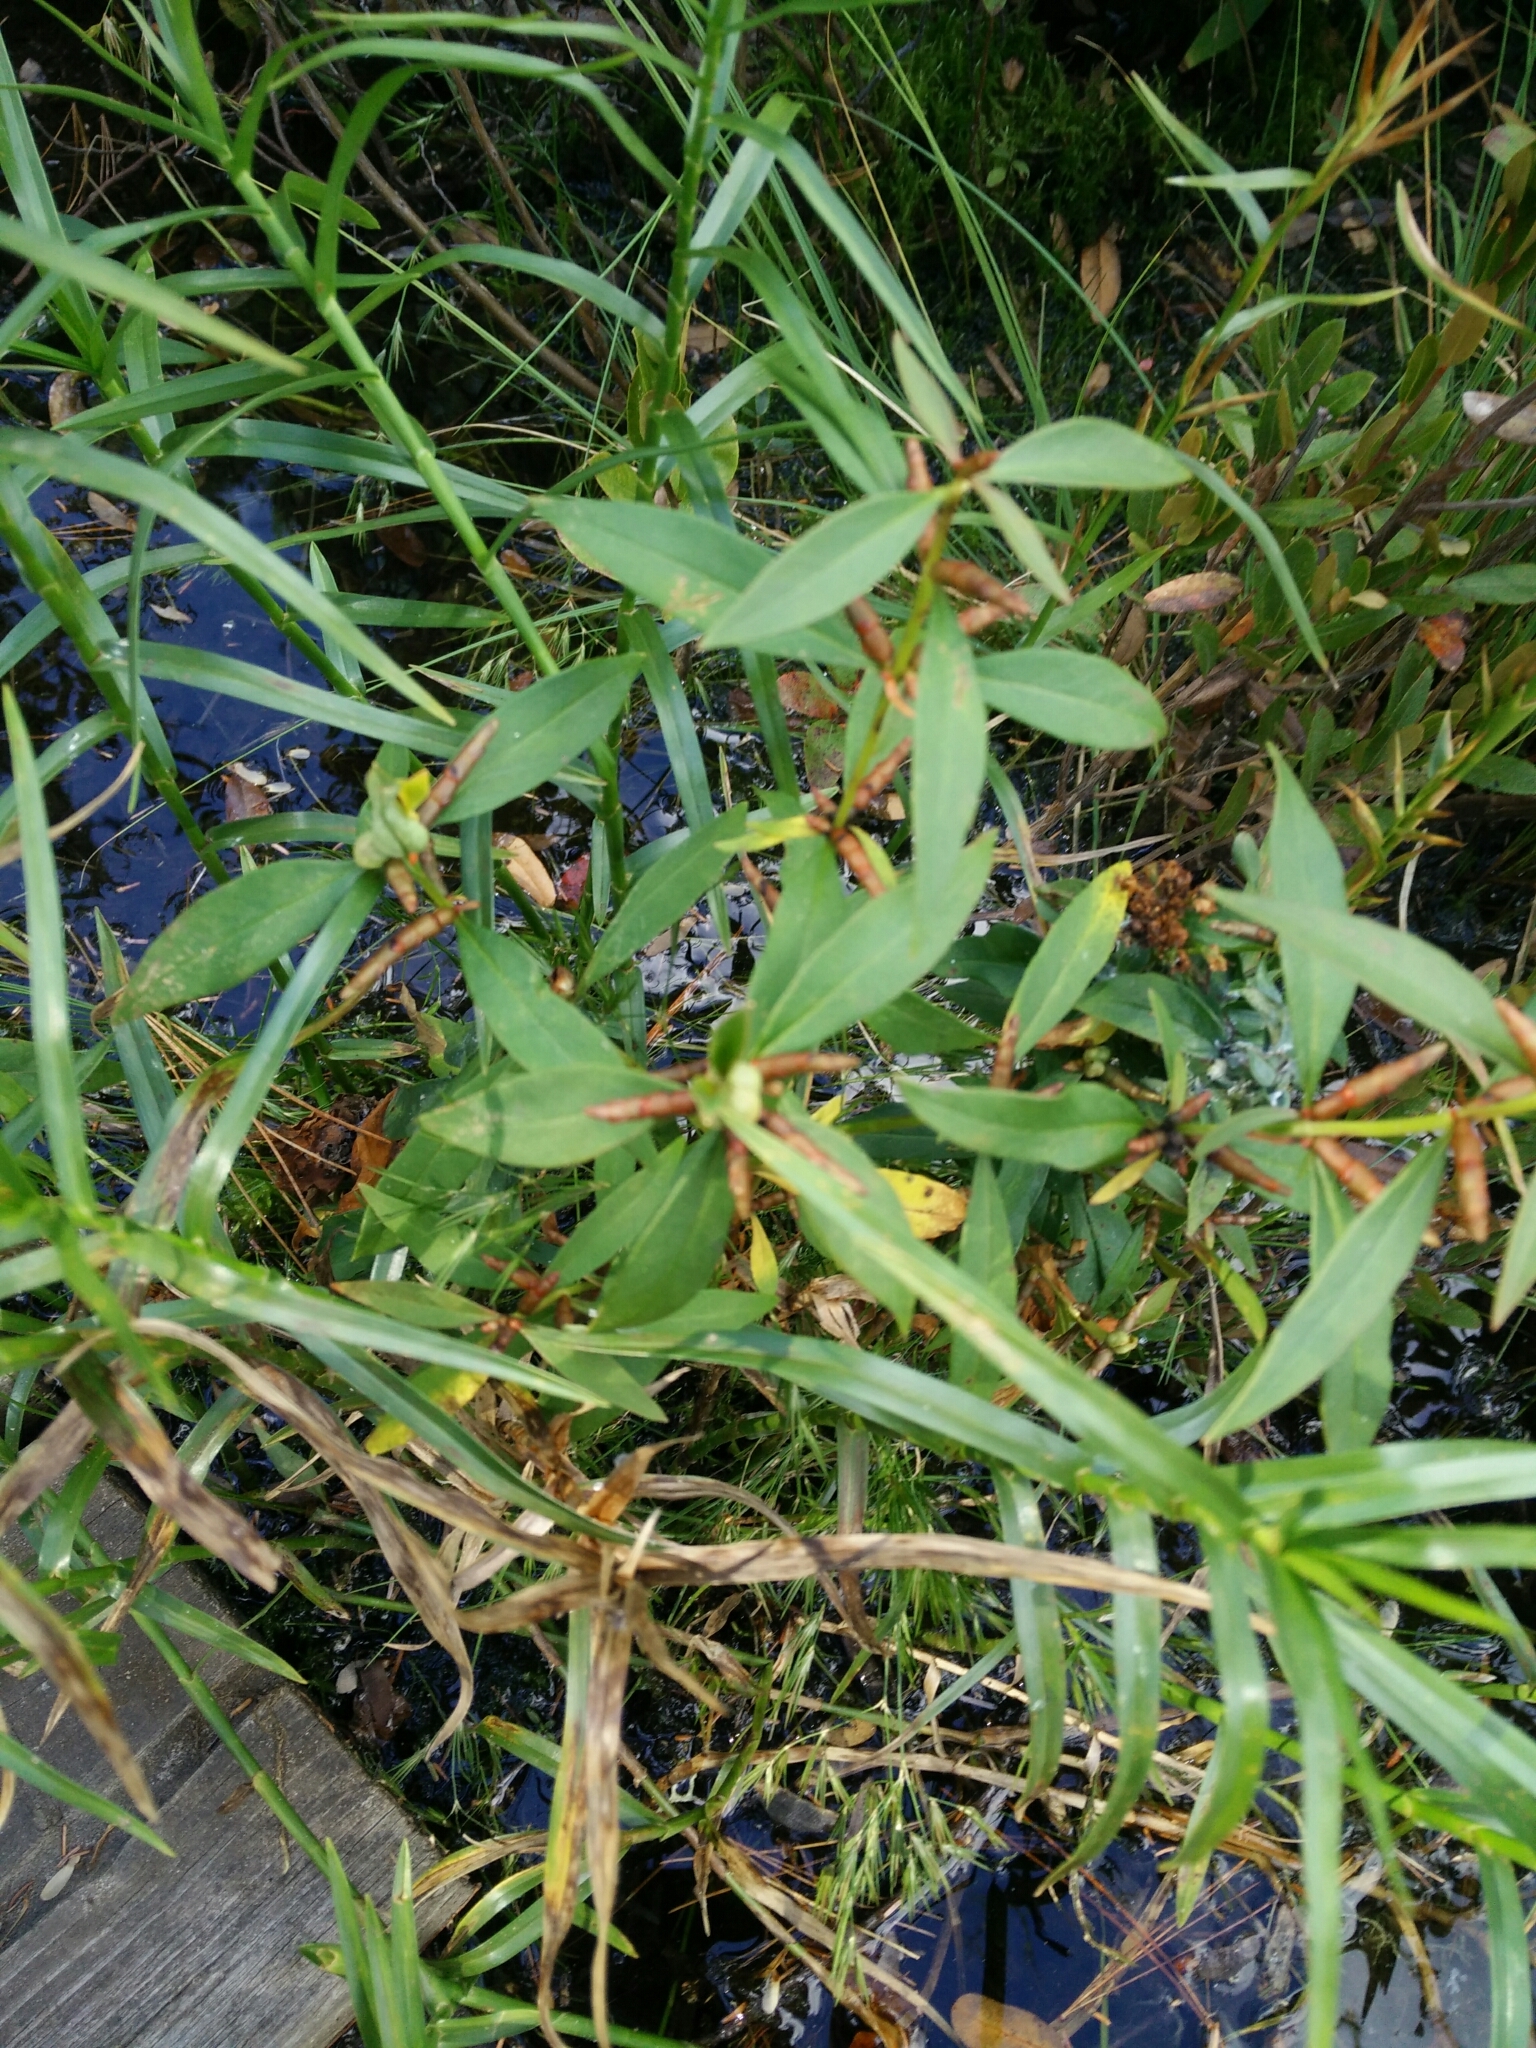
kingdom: Plantae
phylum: Tracheophyta
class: Magnoliopsida
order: Ericales
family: Primulaceae
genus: Lysimachia
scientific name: Lysimachia terrestris
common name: Lake loosestrife
